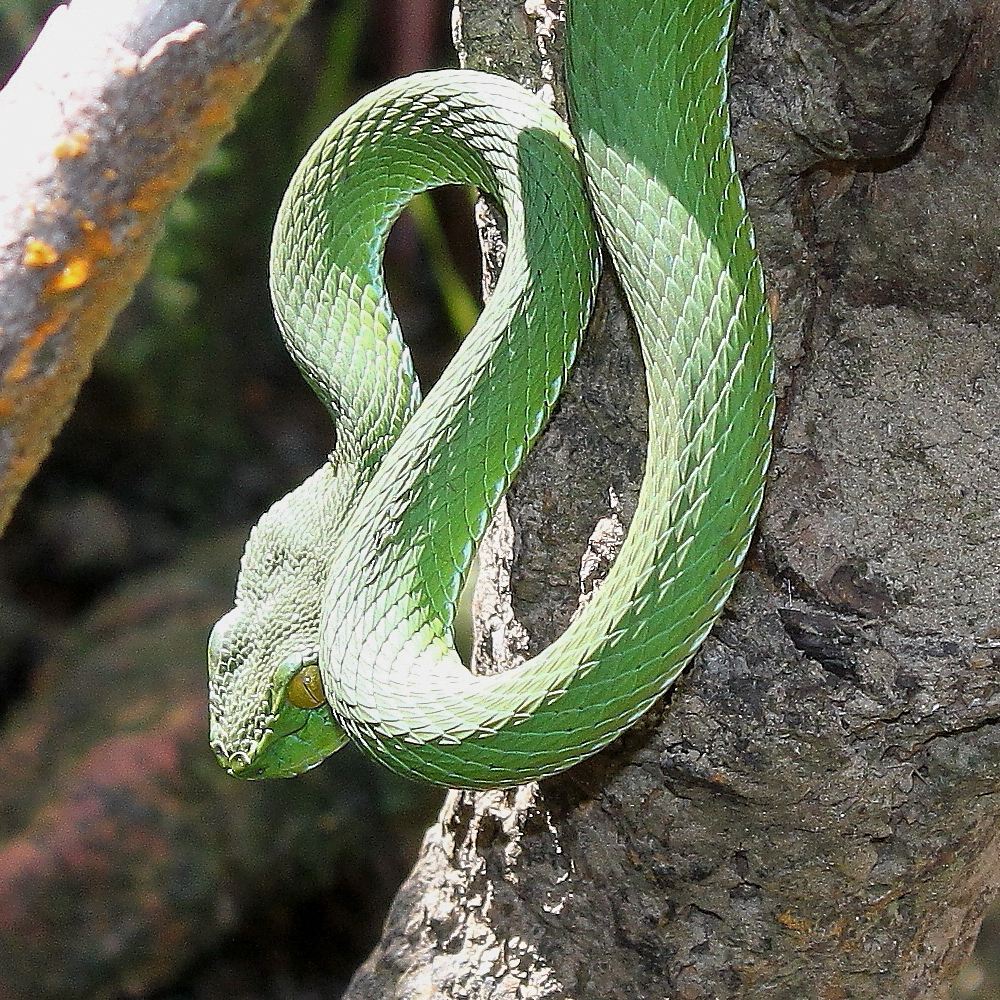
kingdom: Animalia
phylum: Chordata
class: Squamata
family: Viperidae
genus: Trimeresurus
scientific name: Trimeresurus cardamomensis
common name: Cardamom mountains green pitviper
